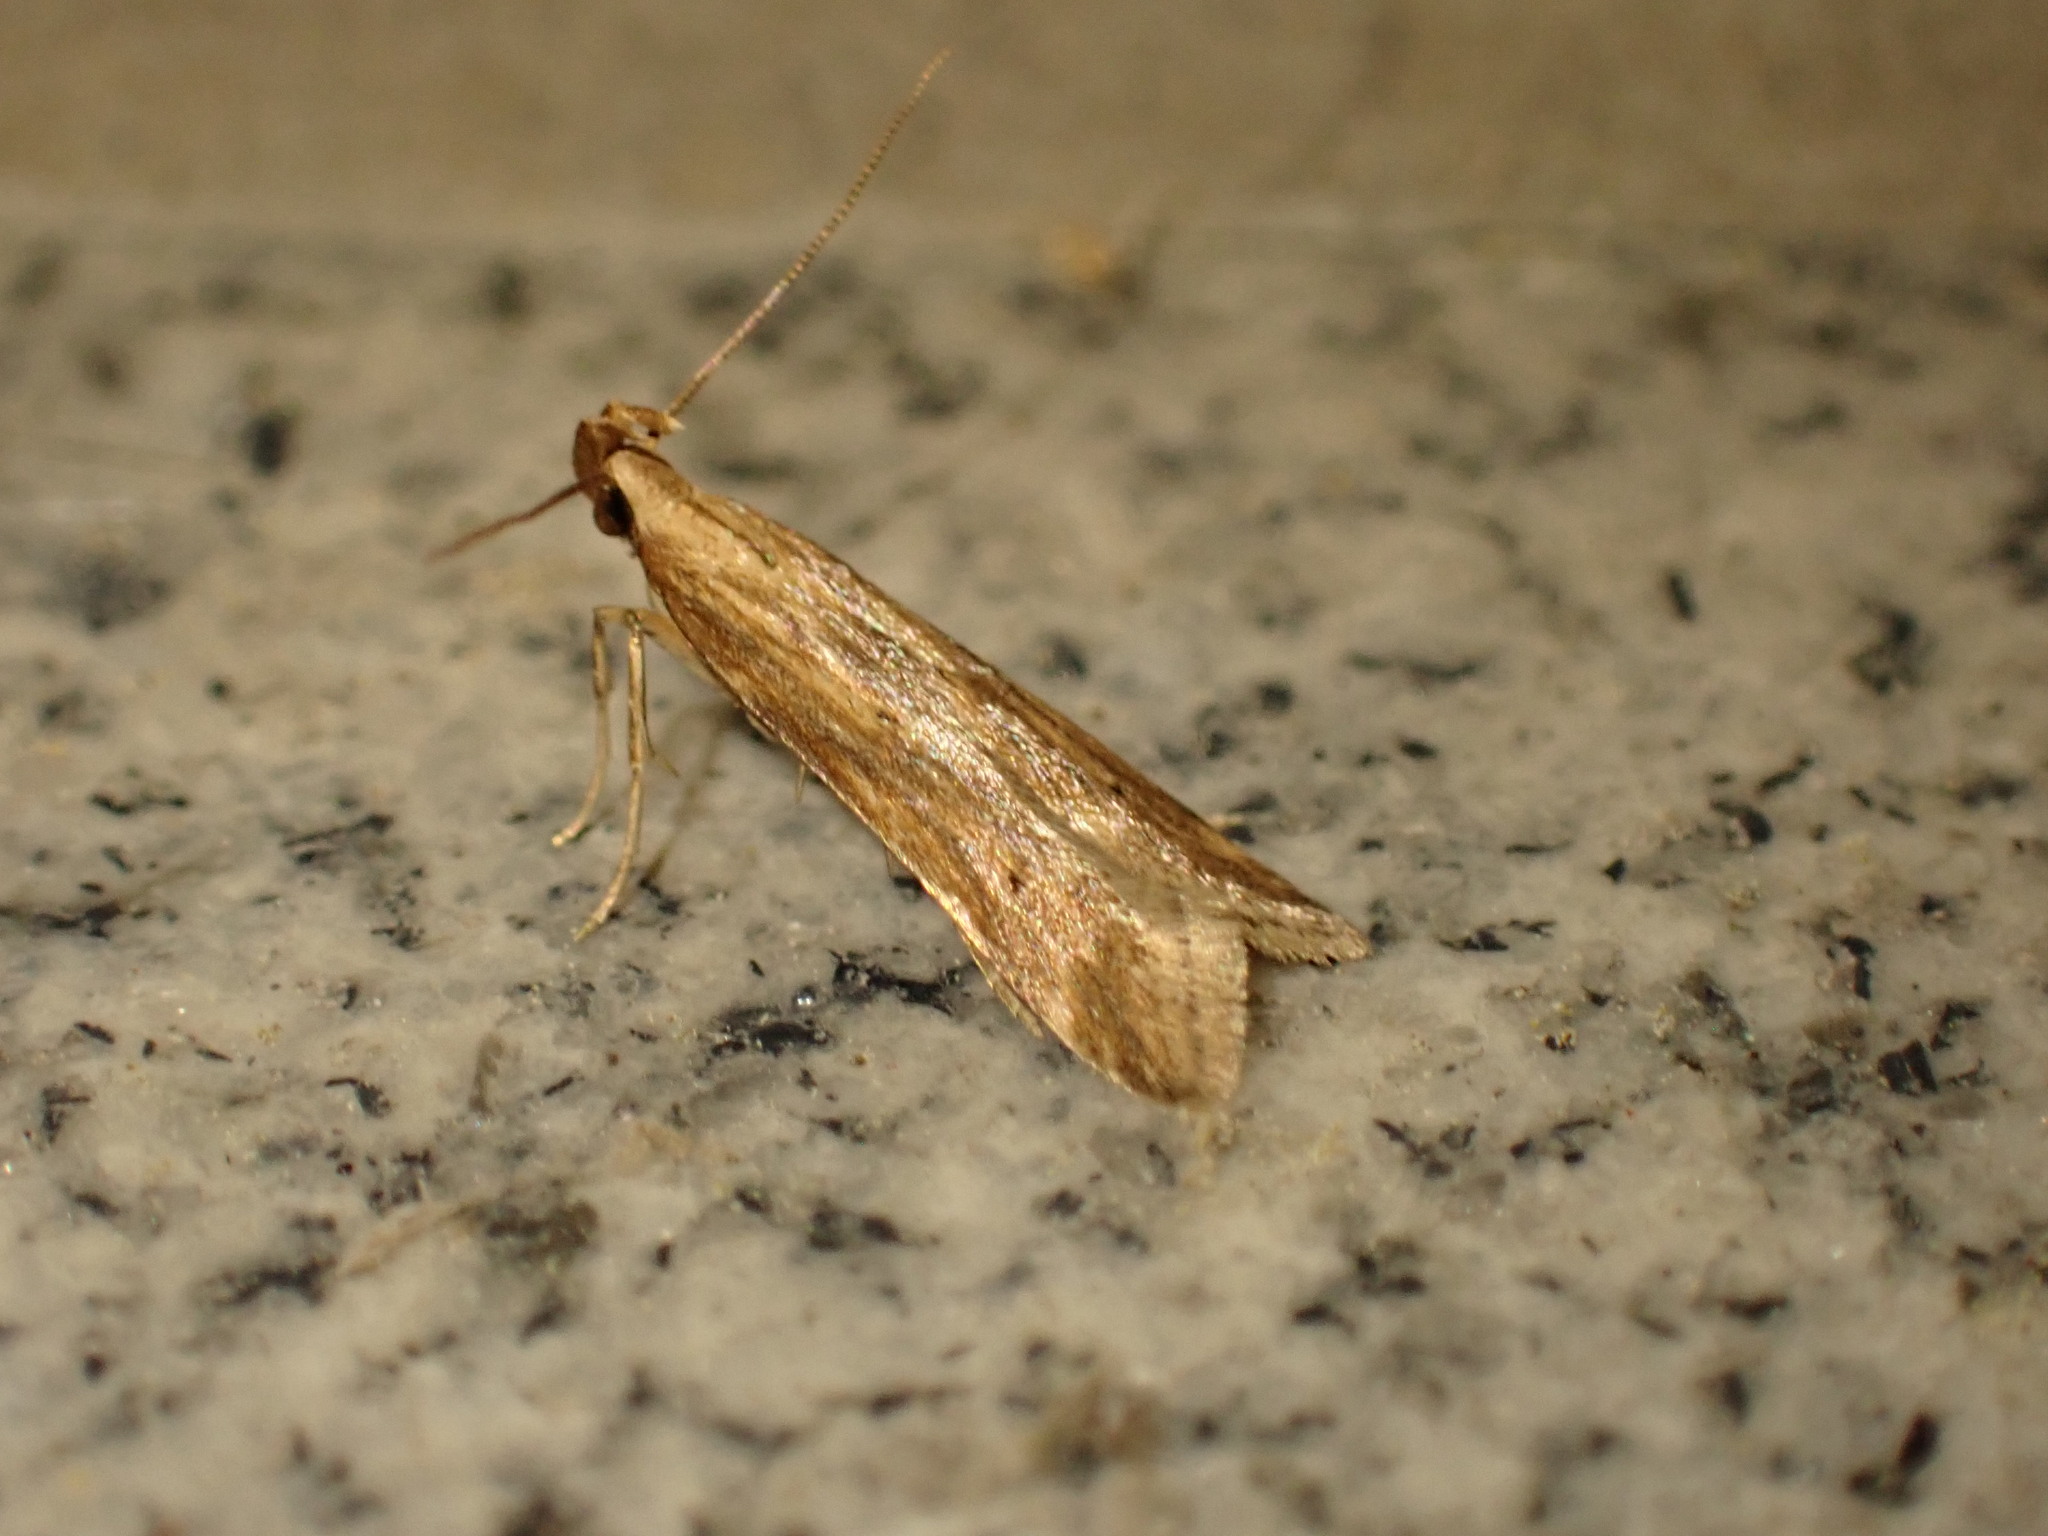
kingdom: Animalia
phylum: Arthropoda
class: Insecta
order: Lepidoptera
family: Gelechiidae
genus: Metzneria
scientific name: Metzneria lappella
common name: Burdock neb
